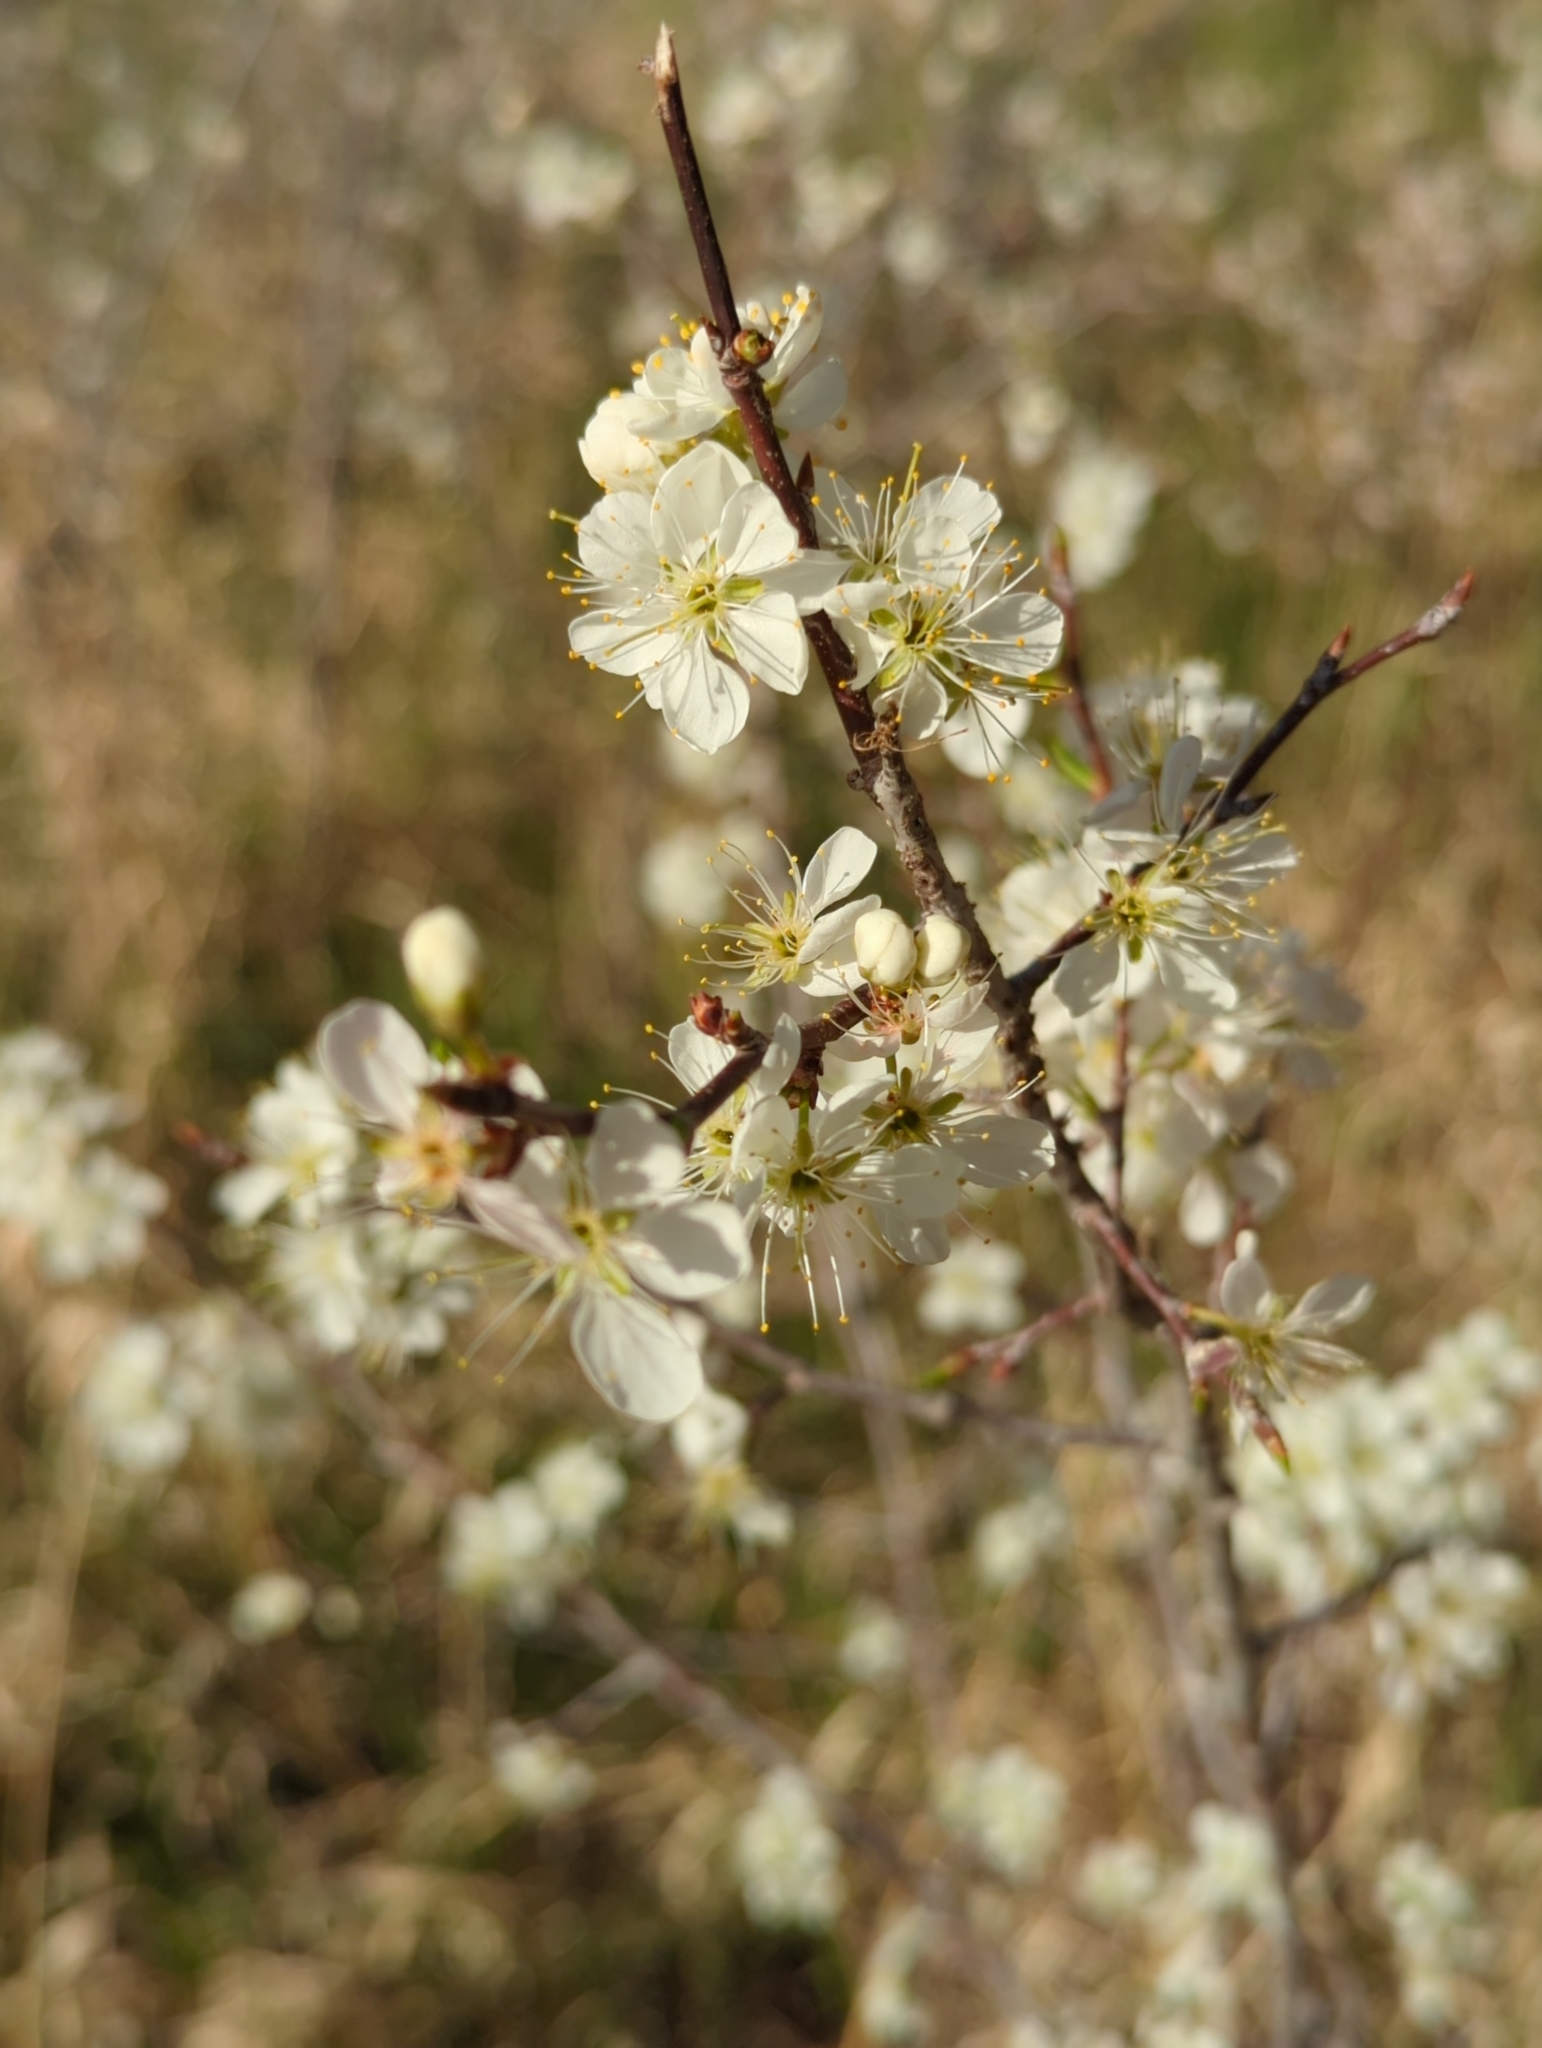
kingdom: Plantae
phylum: Tracheophyta
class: Magnoliopsida
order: Rosales
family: Rosaceae
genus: Prunus
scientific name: Prunus americana
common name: American plum
